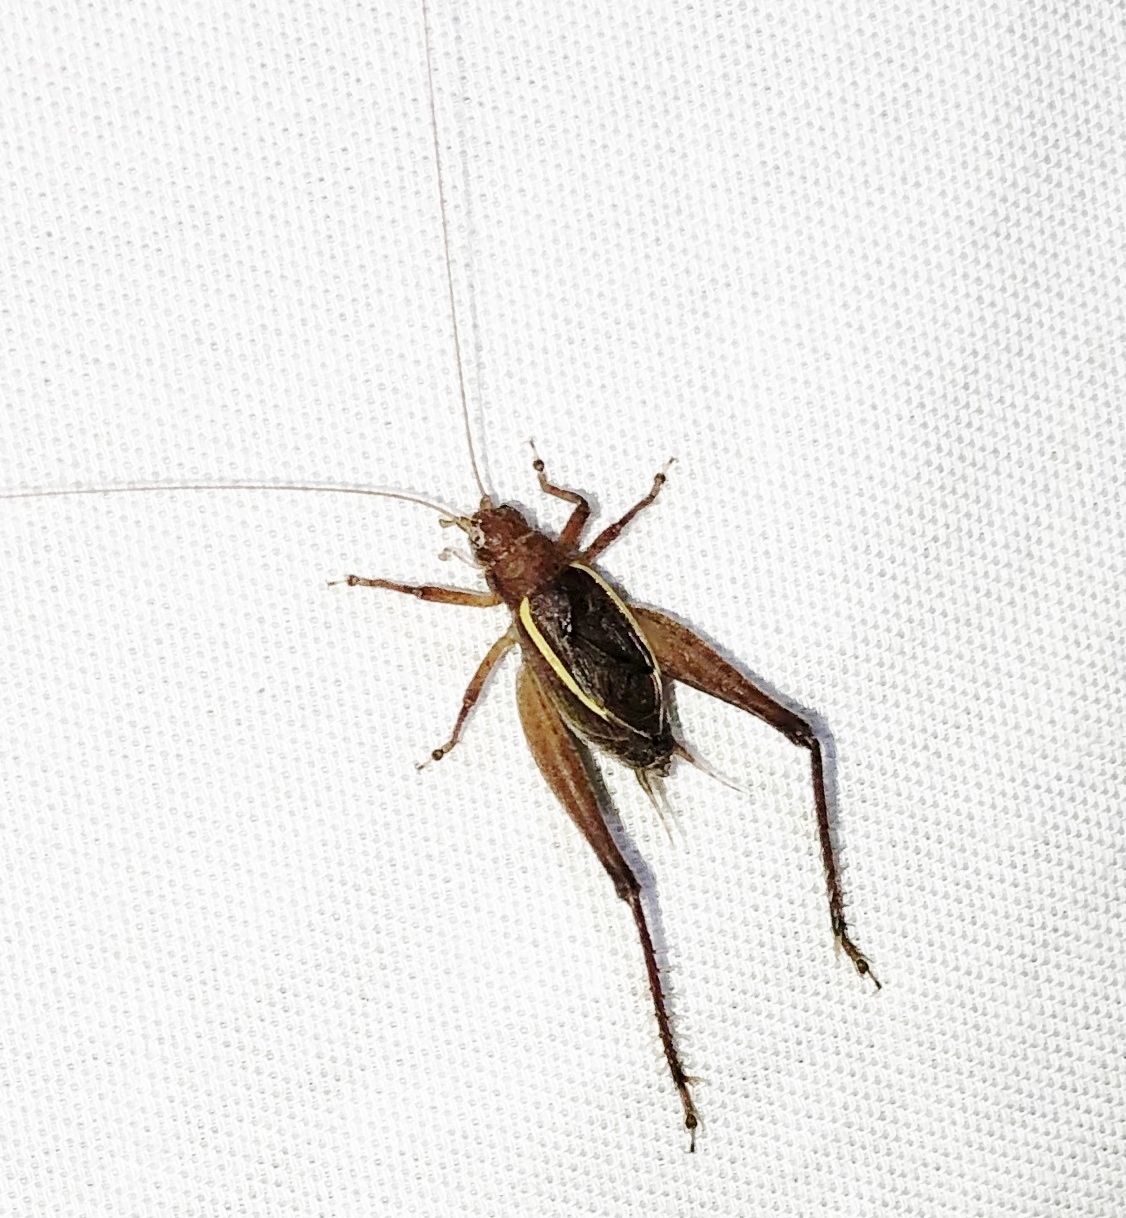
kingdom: Animalia
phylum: Arthropoda
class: Insecta
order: Orthoptera
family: Gryllidae
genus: Hapithus
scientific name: Hapithus agitator
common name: Restless bush cricket
